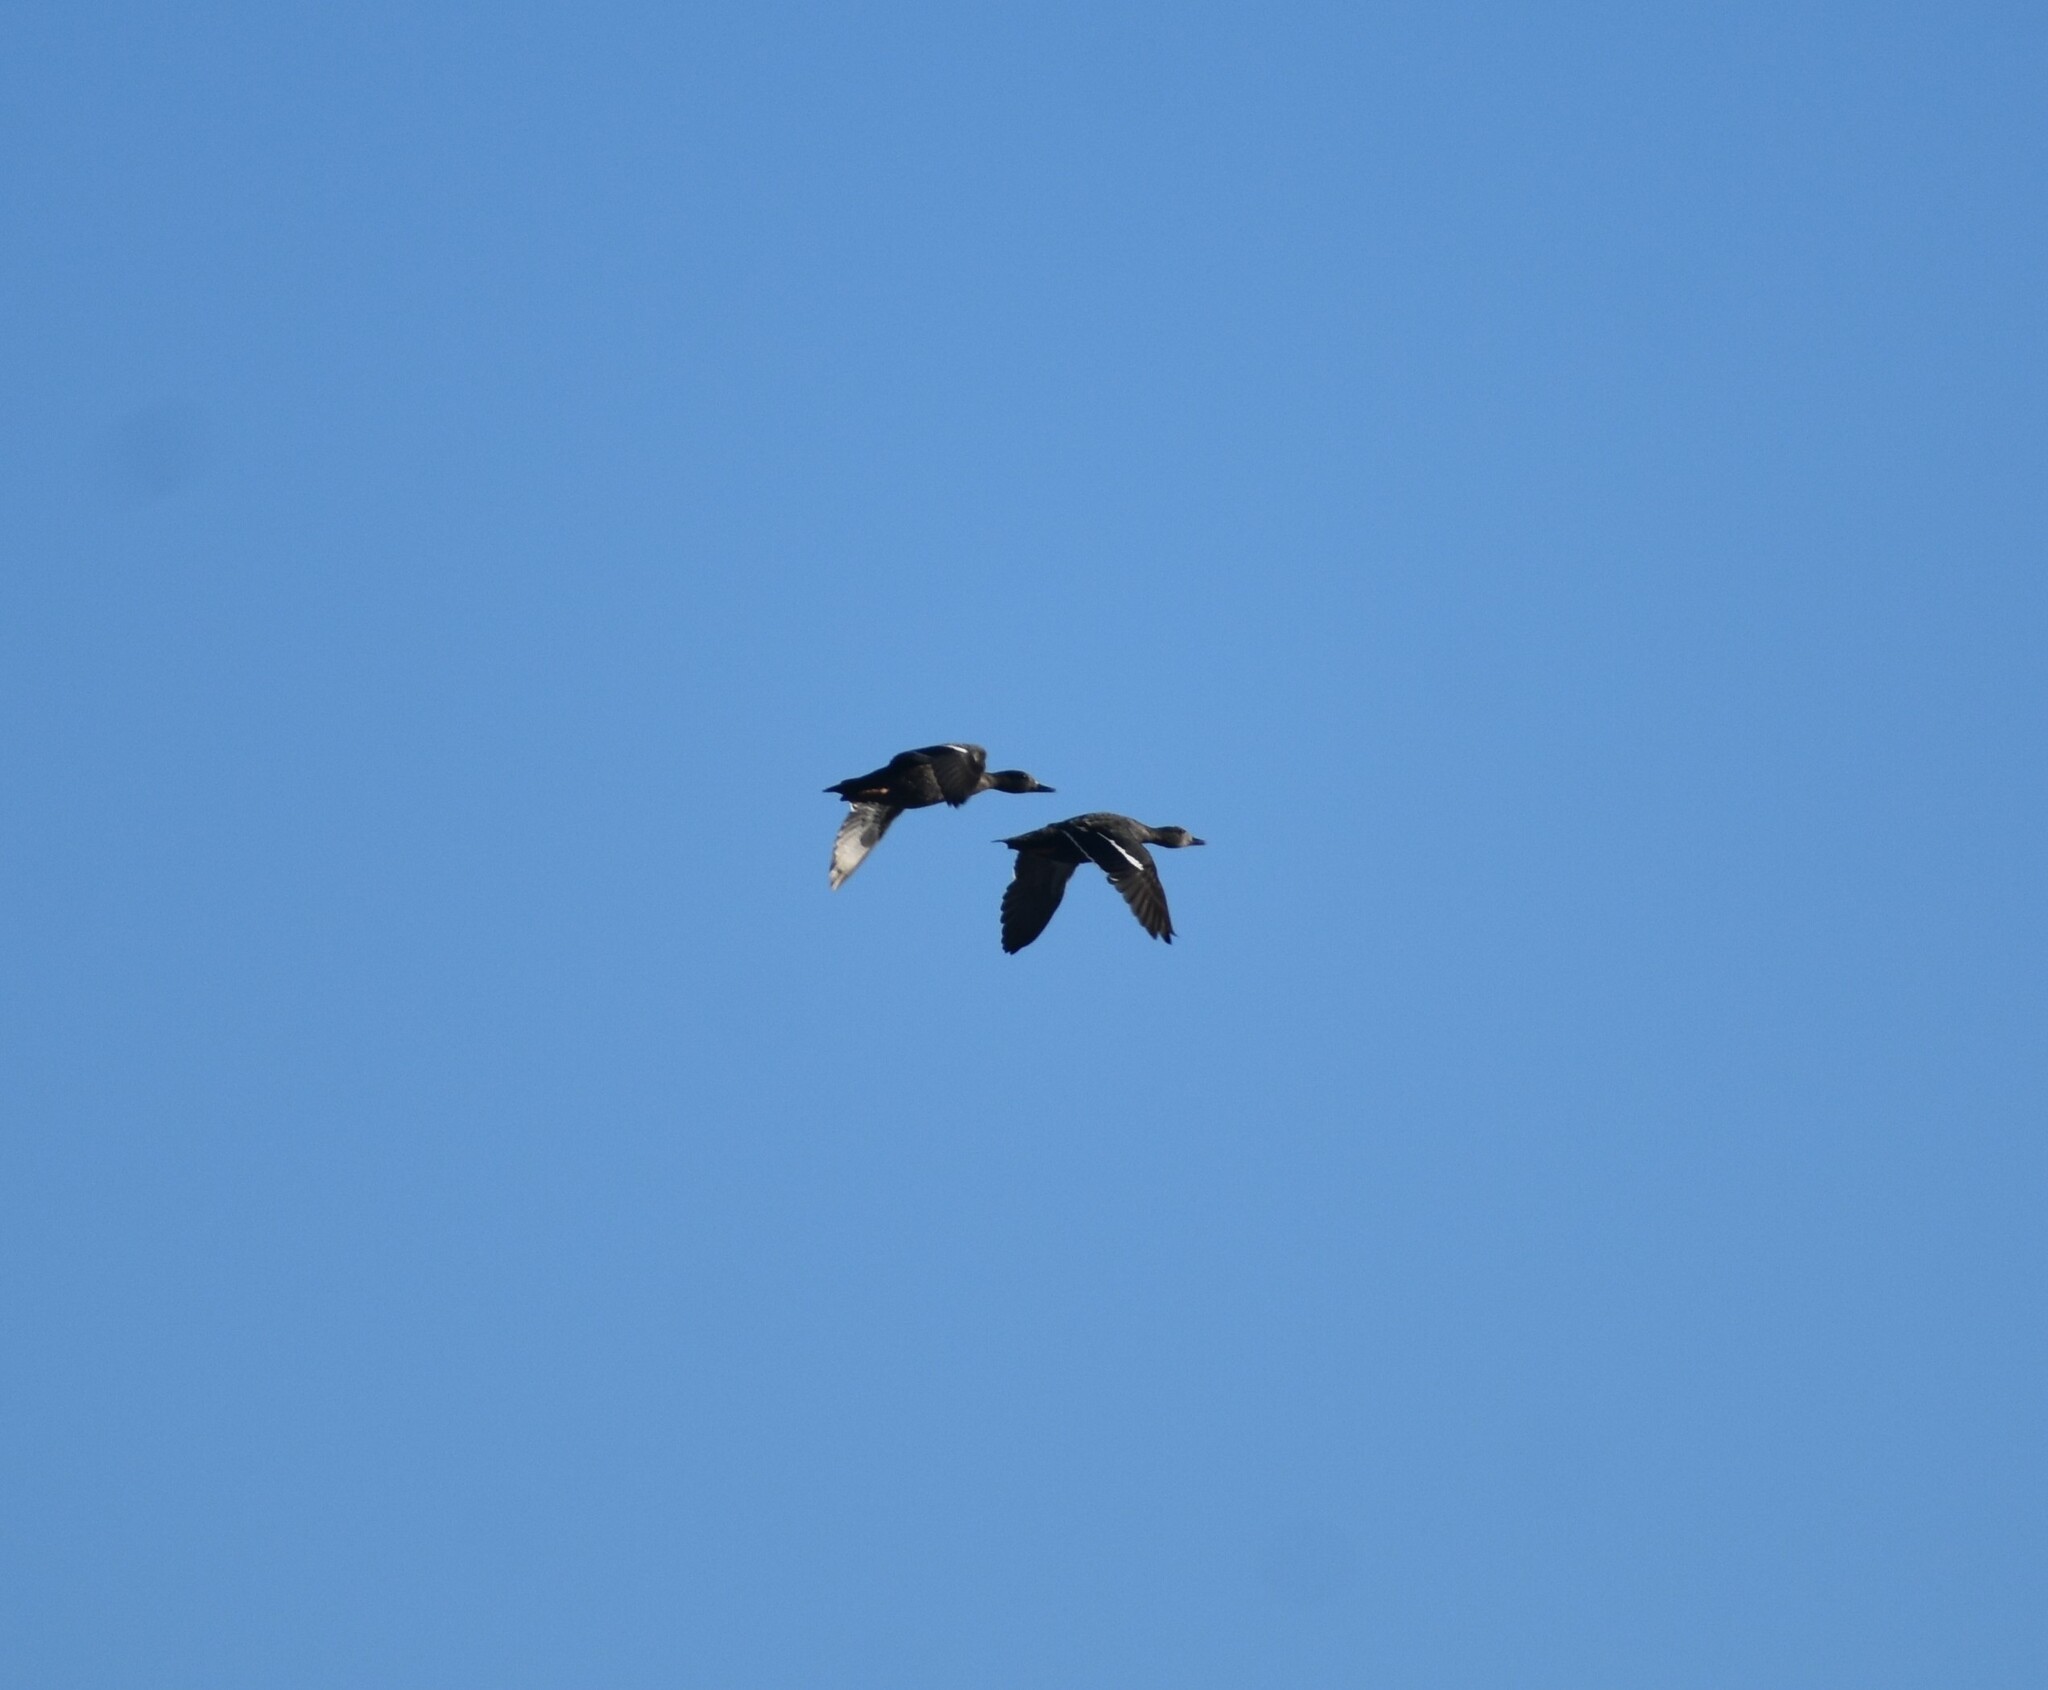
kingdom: Animalia
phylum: Chordata
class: Aves
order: Anseriformes
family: Anatidae
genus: Anas
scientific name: Anas sparsa
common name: African black duck
